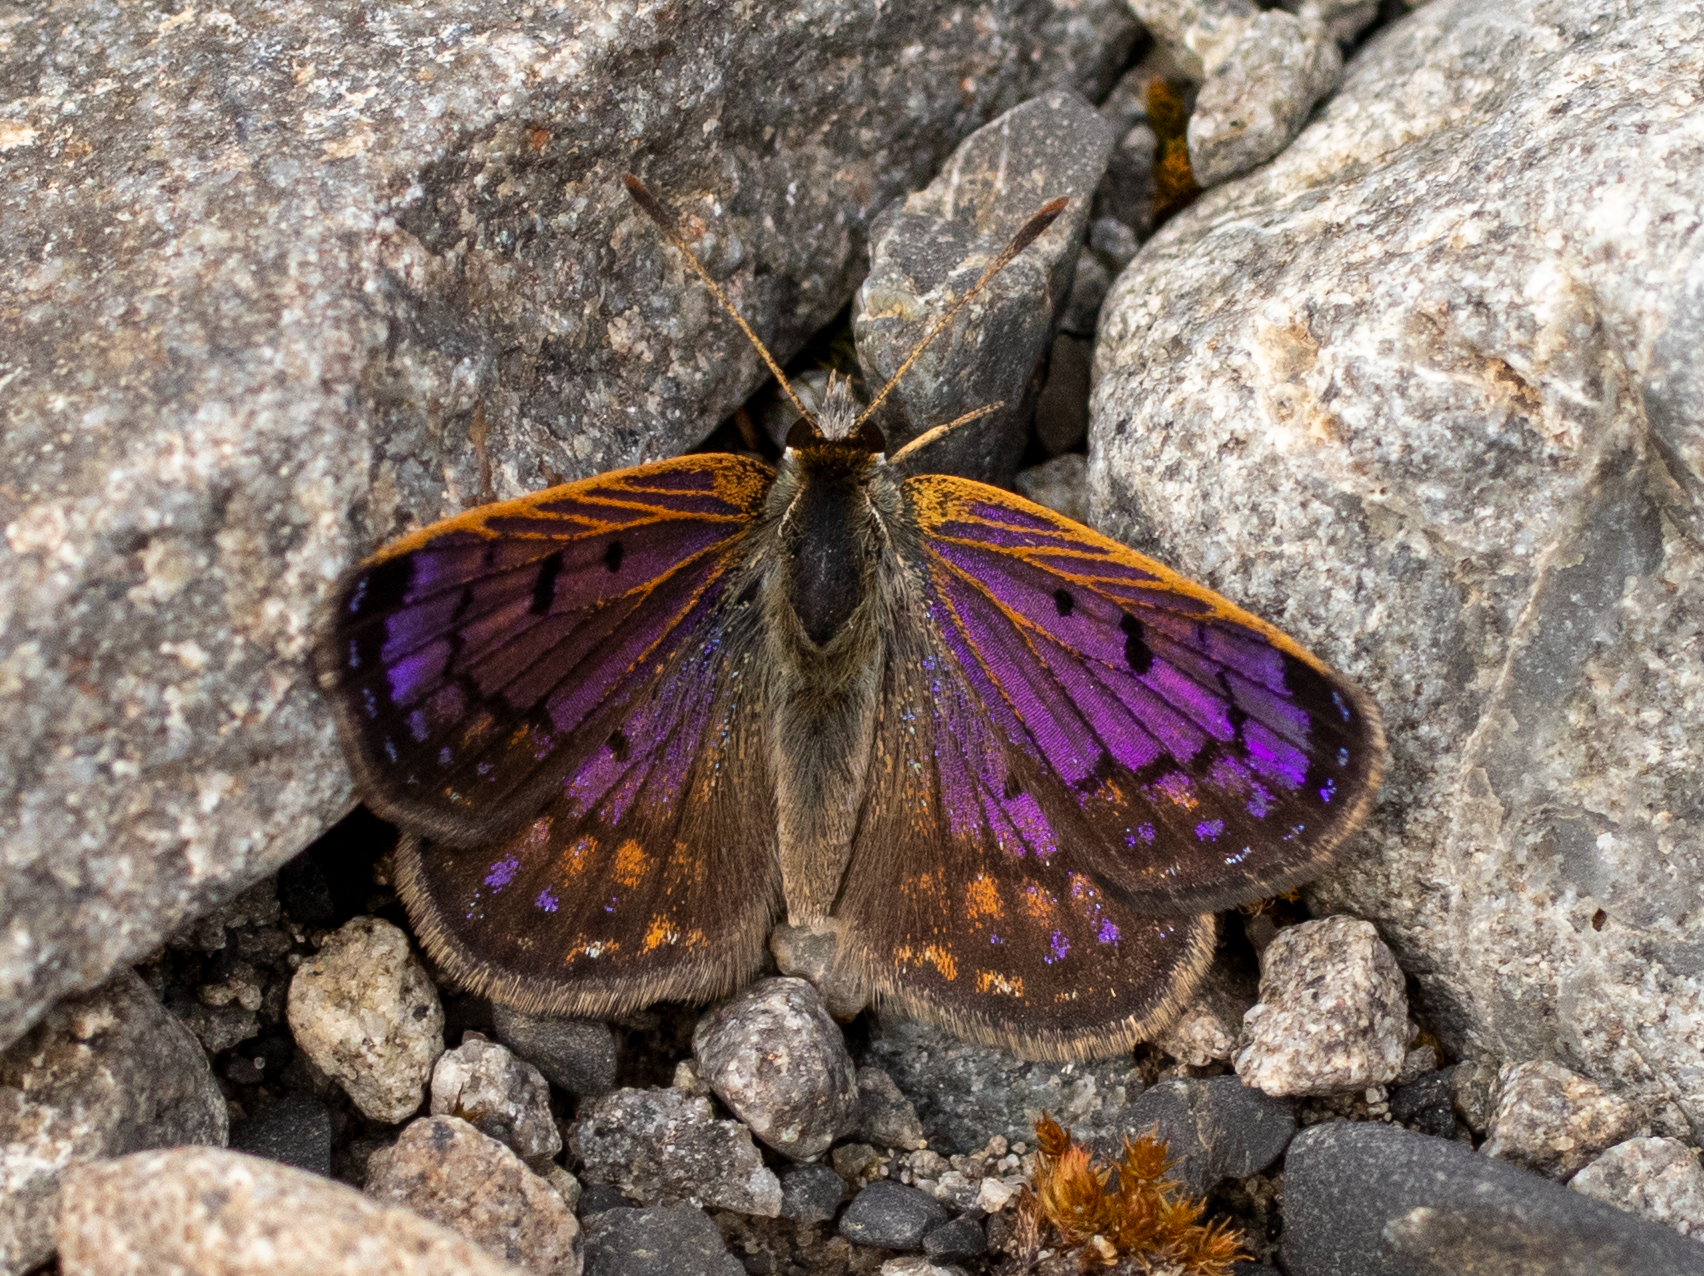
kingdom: Animalia
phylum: Arthropoda
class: Insecta
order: Lepidoptera
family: Lycaenidae
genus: Lycaena
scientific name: Lycaena tama
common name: Canterbury alpine boulder copper
